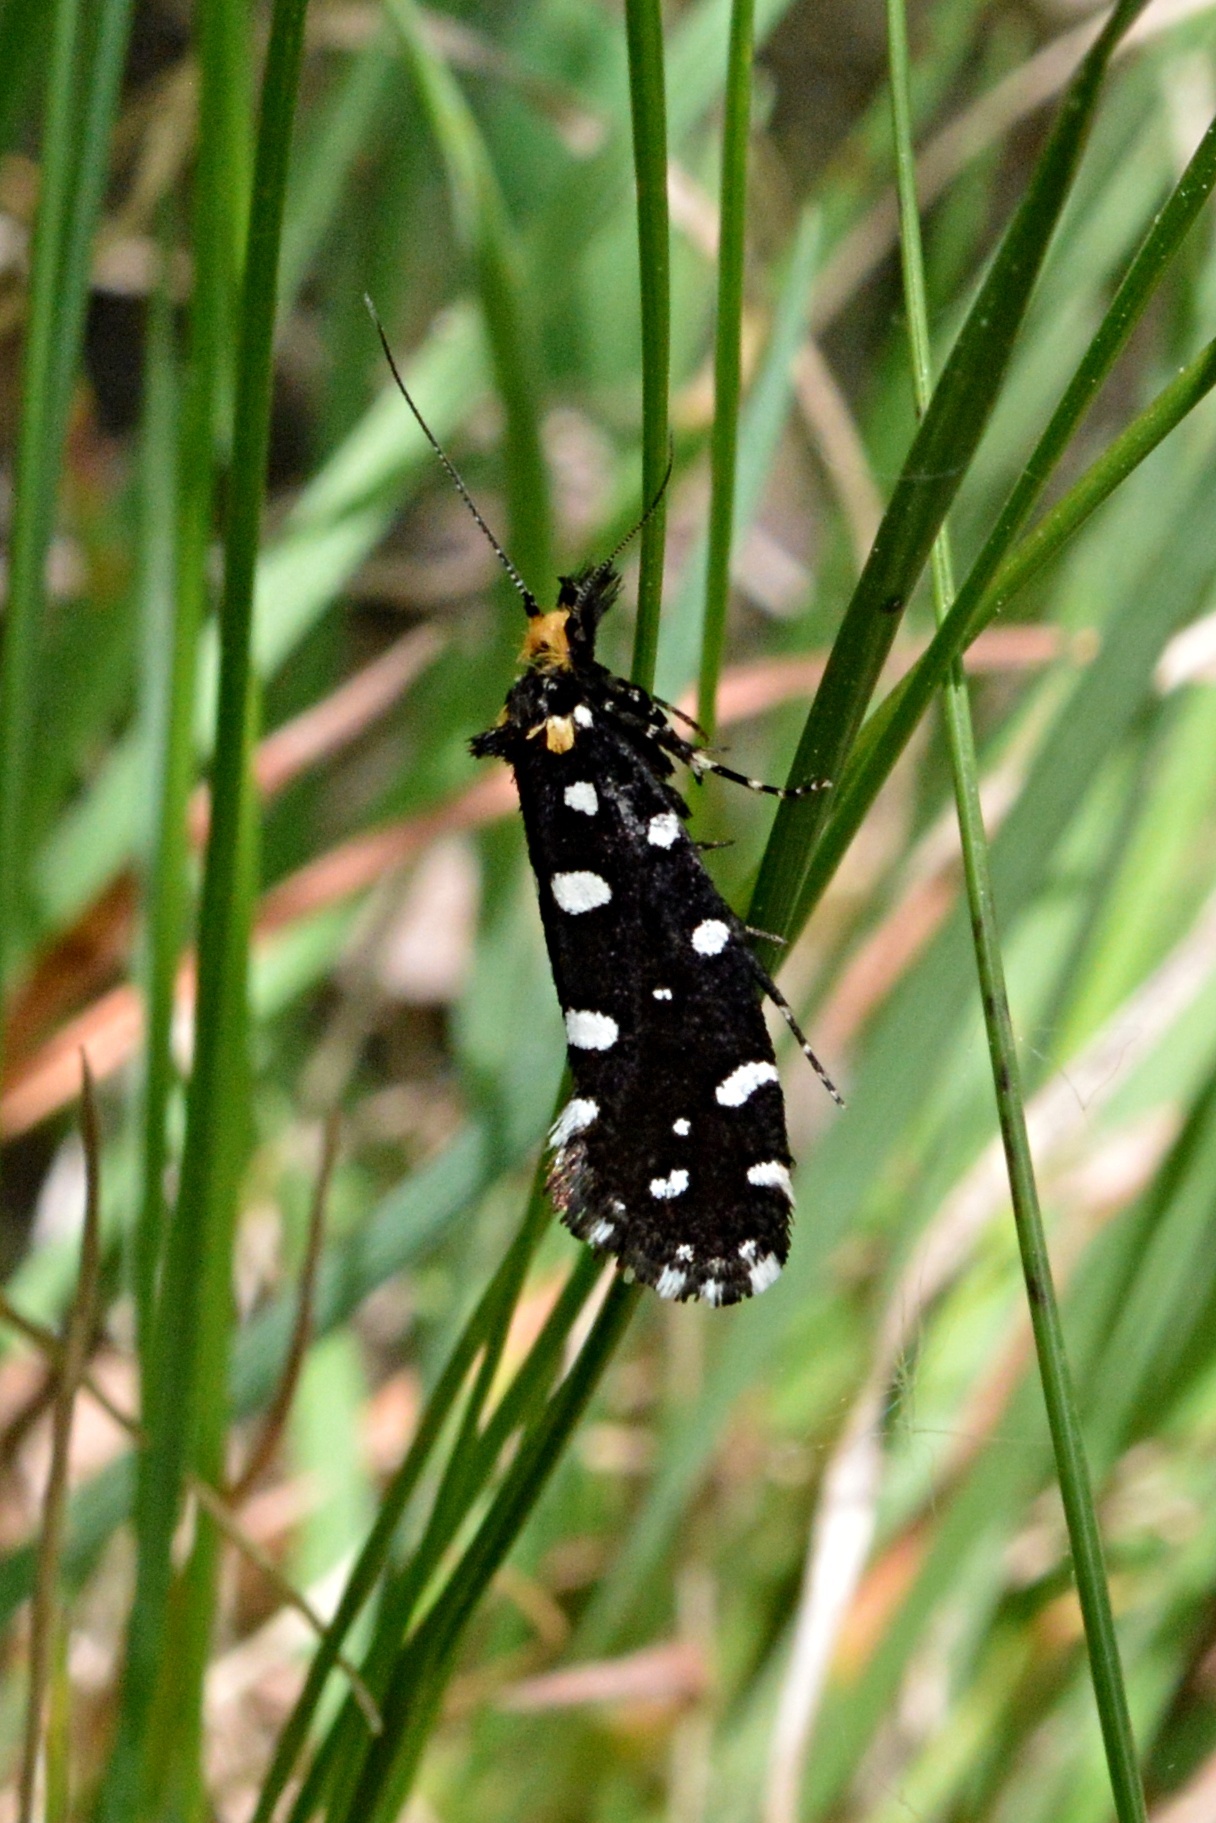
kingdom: Animalia
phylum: Arthropoda
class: Insecta
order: Lepidoptera
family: Tineidae
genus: Euplocamus
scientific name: Euplocamus anthracinalis
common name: Black clothes
